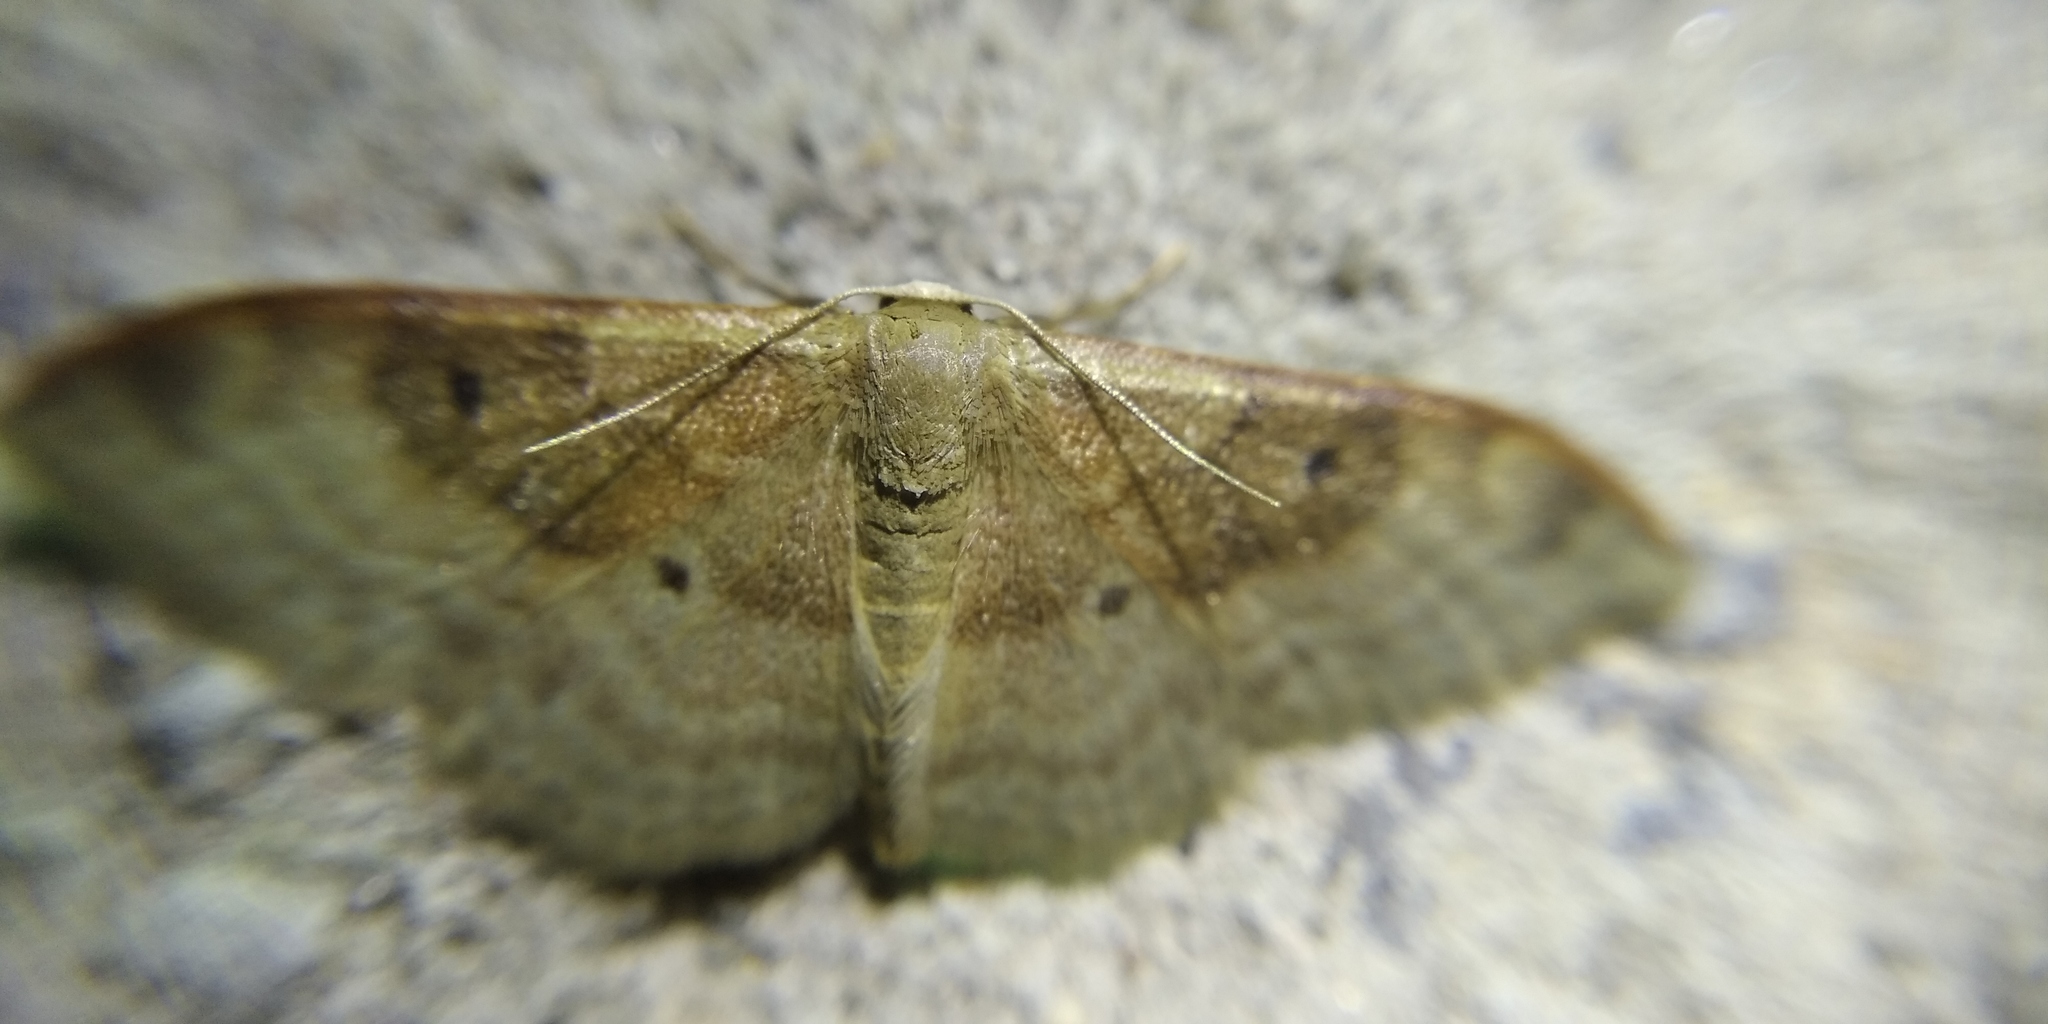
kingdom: Animalia
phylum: Arthropoda
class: Insecta
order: Lepidoptera
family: Geometridae
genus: Idaea
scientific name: Idaea degeneraria
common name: Portland ribbon wave
